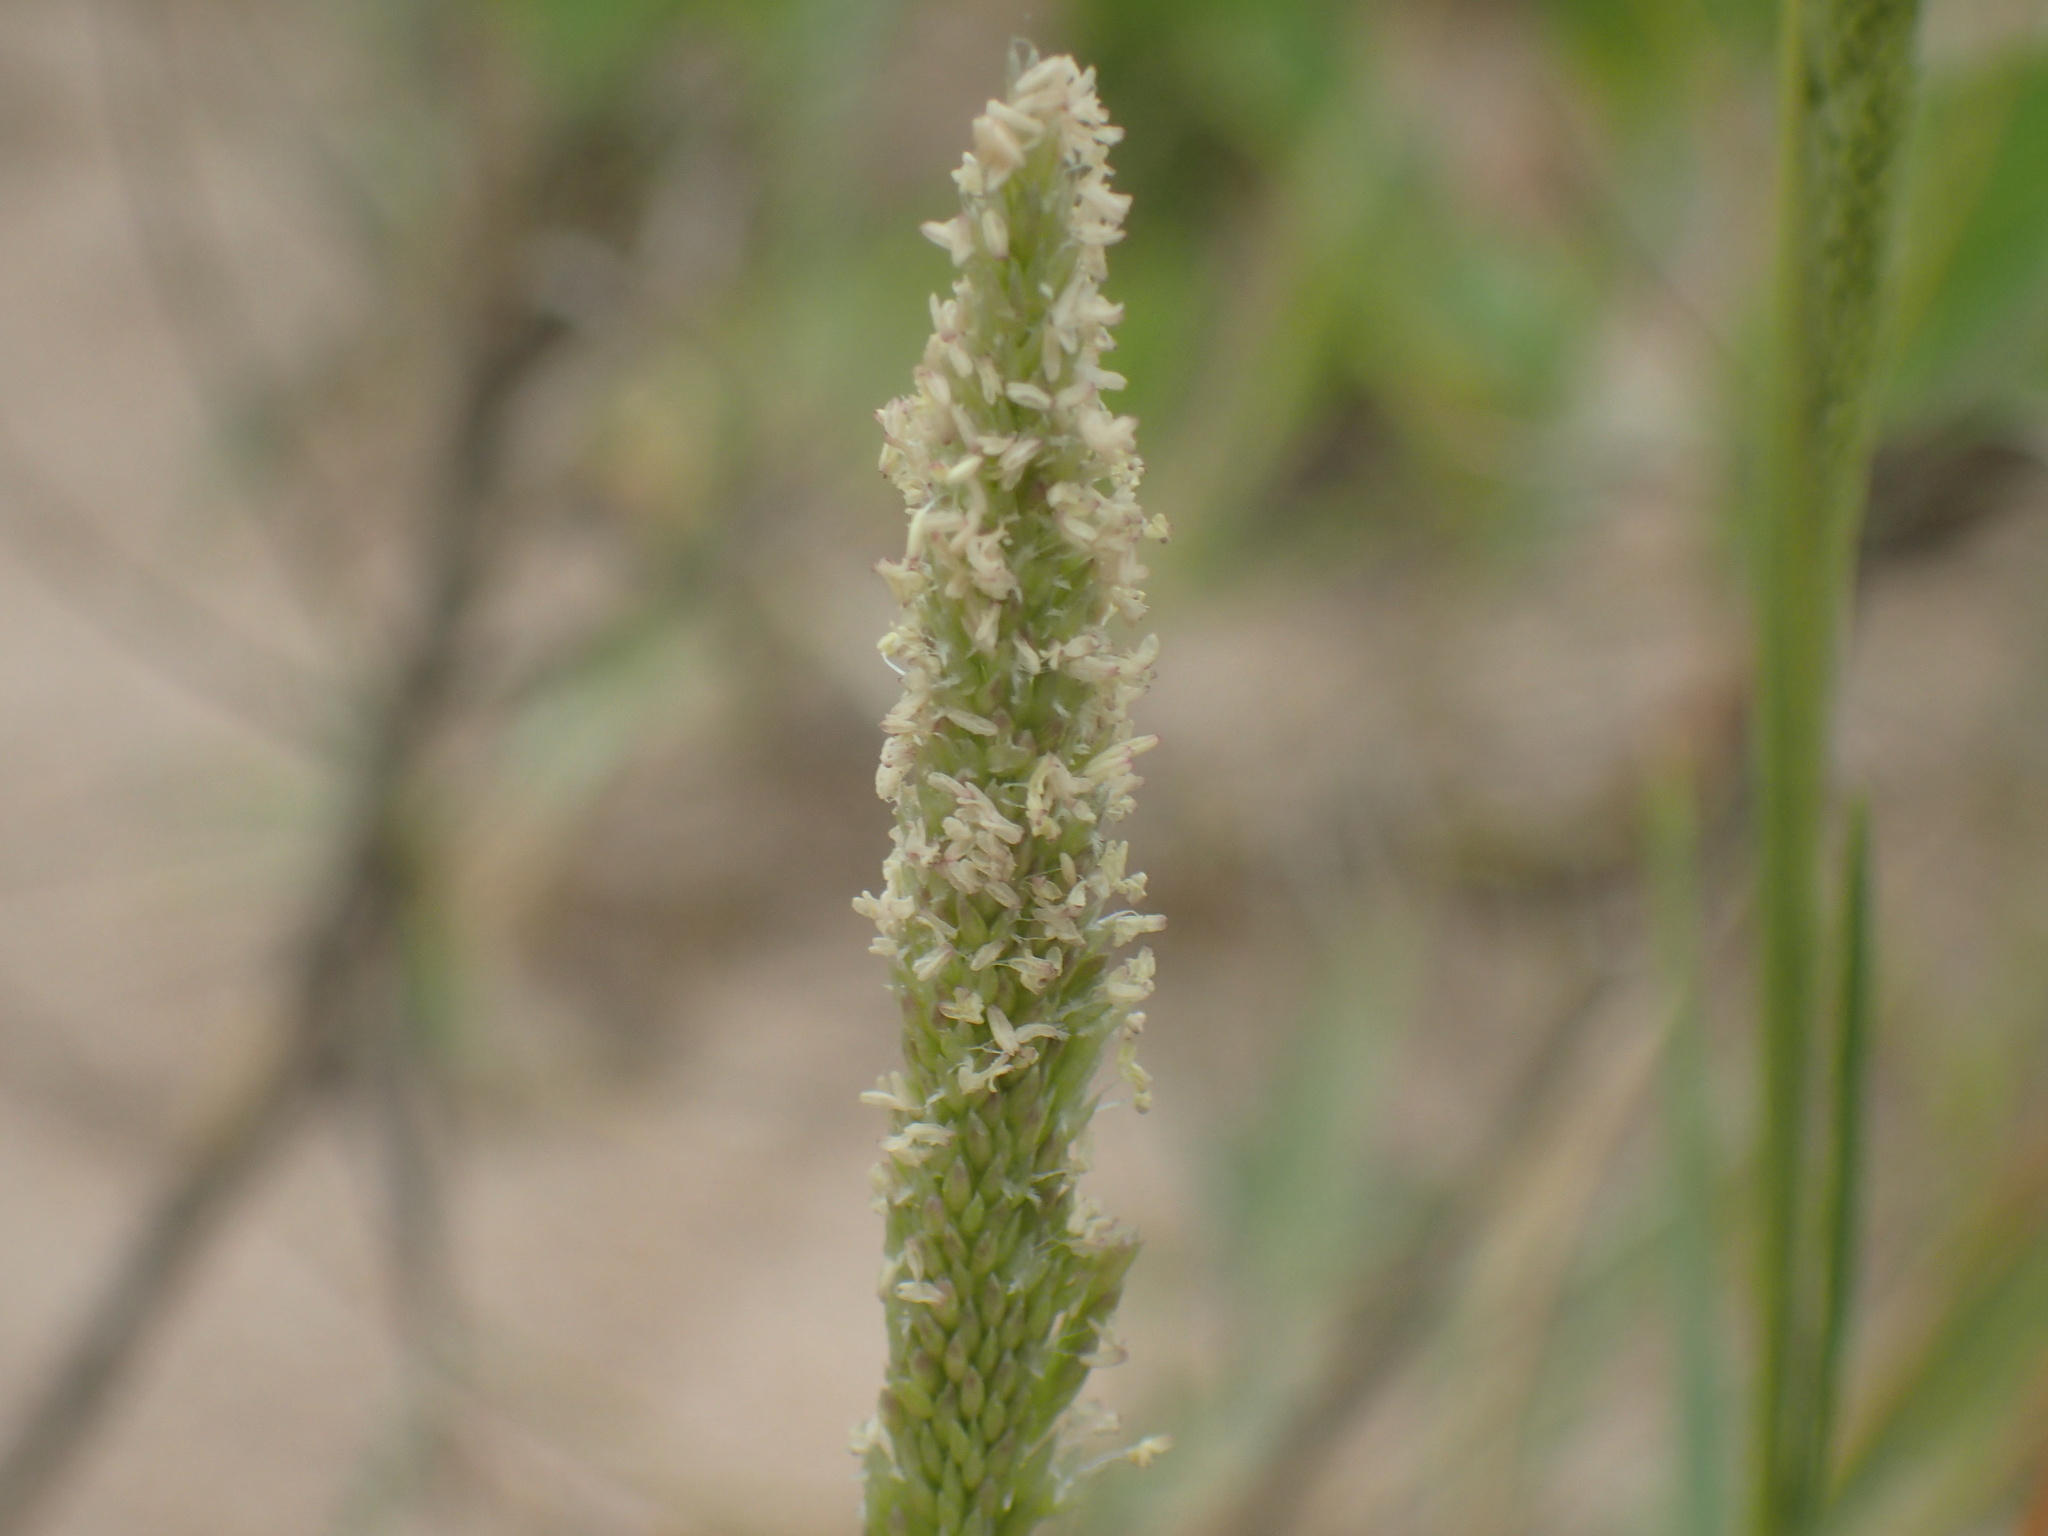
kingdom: Plantae
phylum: Tracheophyta
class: Liliopsida
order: Poales
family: Poaceae
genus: Sporobolus
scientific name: Sporobolus virginicus
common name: Beach dropseed
